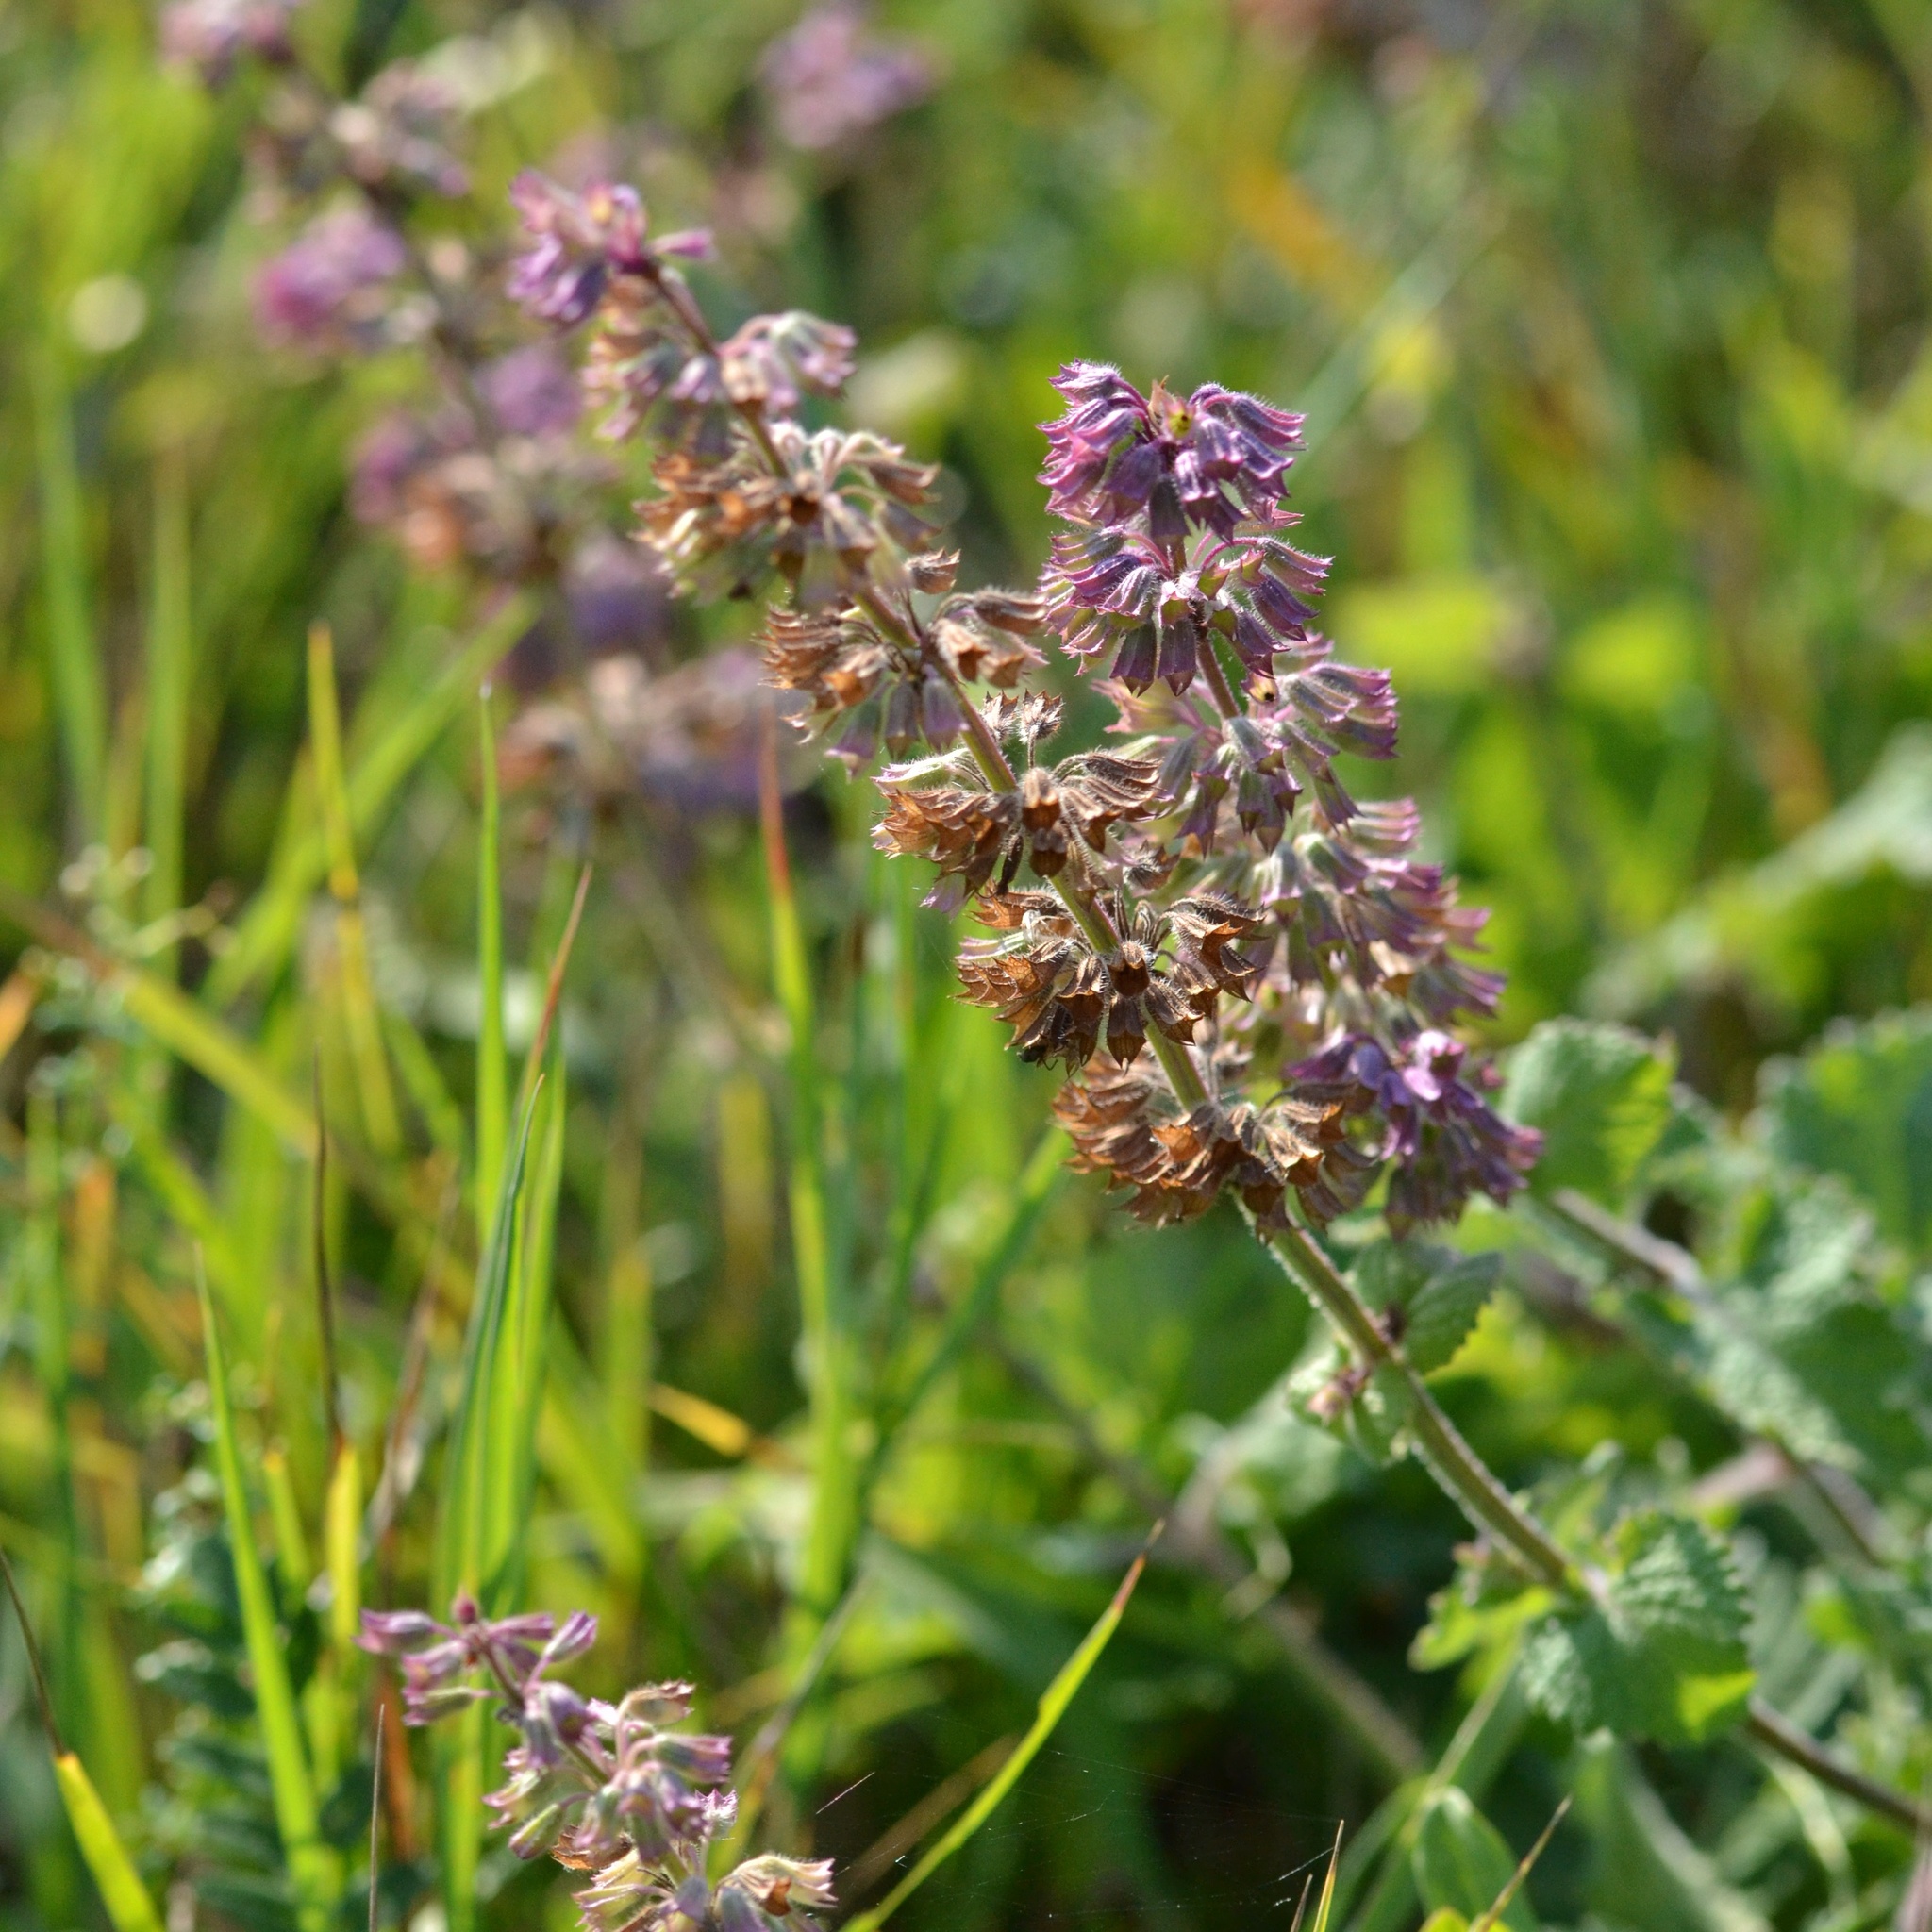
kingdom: Plantae
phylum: Tracheophyta
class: Magnoliopsida
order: Lamiales
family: Lamiaceae
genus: Salvia
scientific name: Salvia verticillata
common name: Whorled clary
